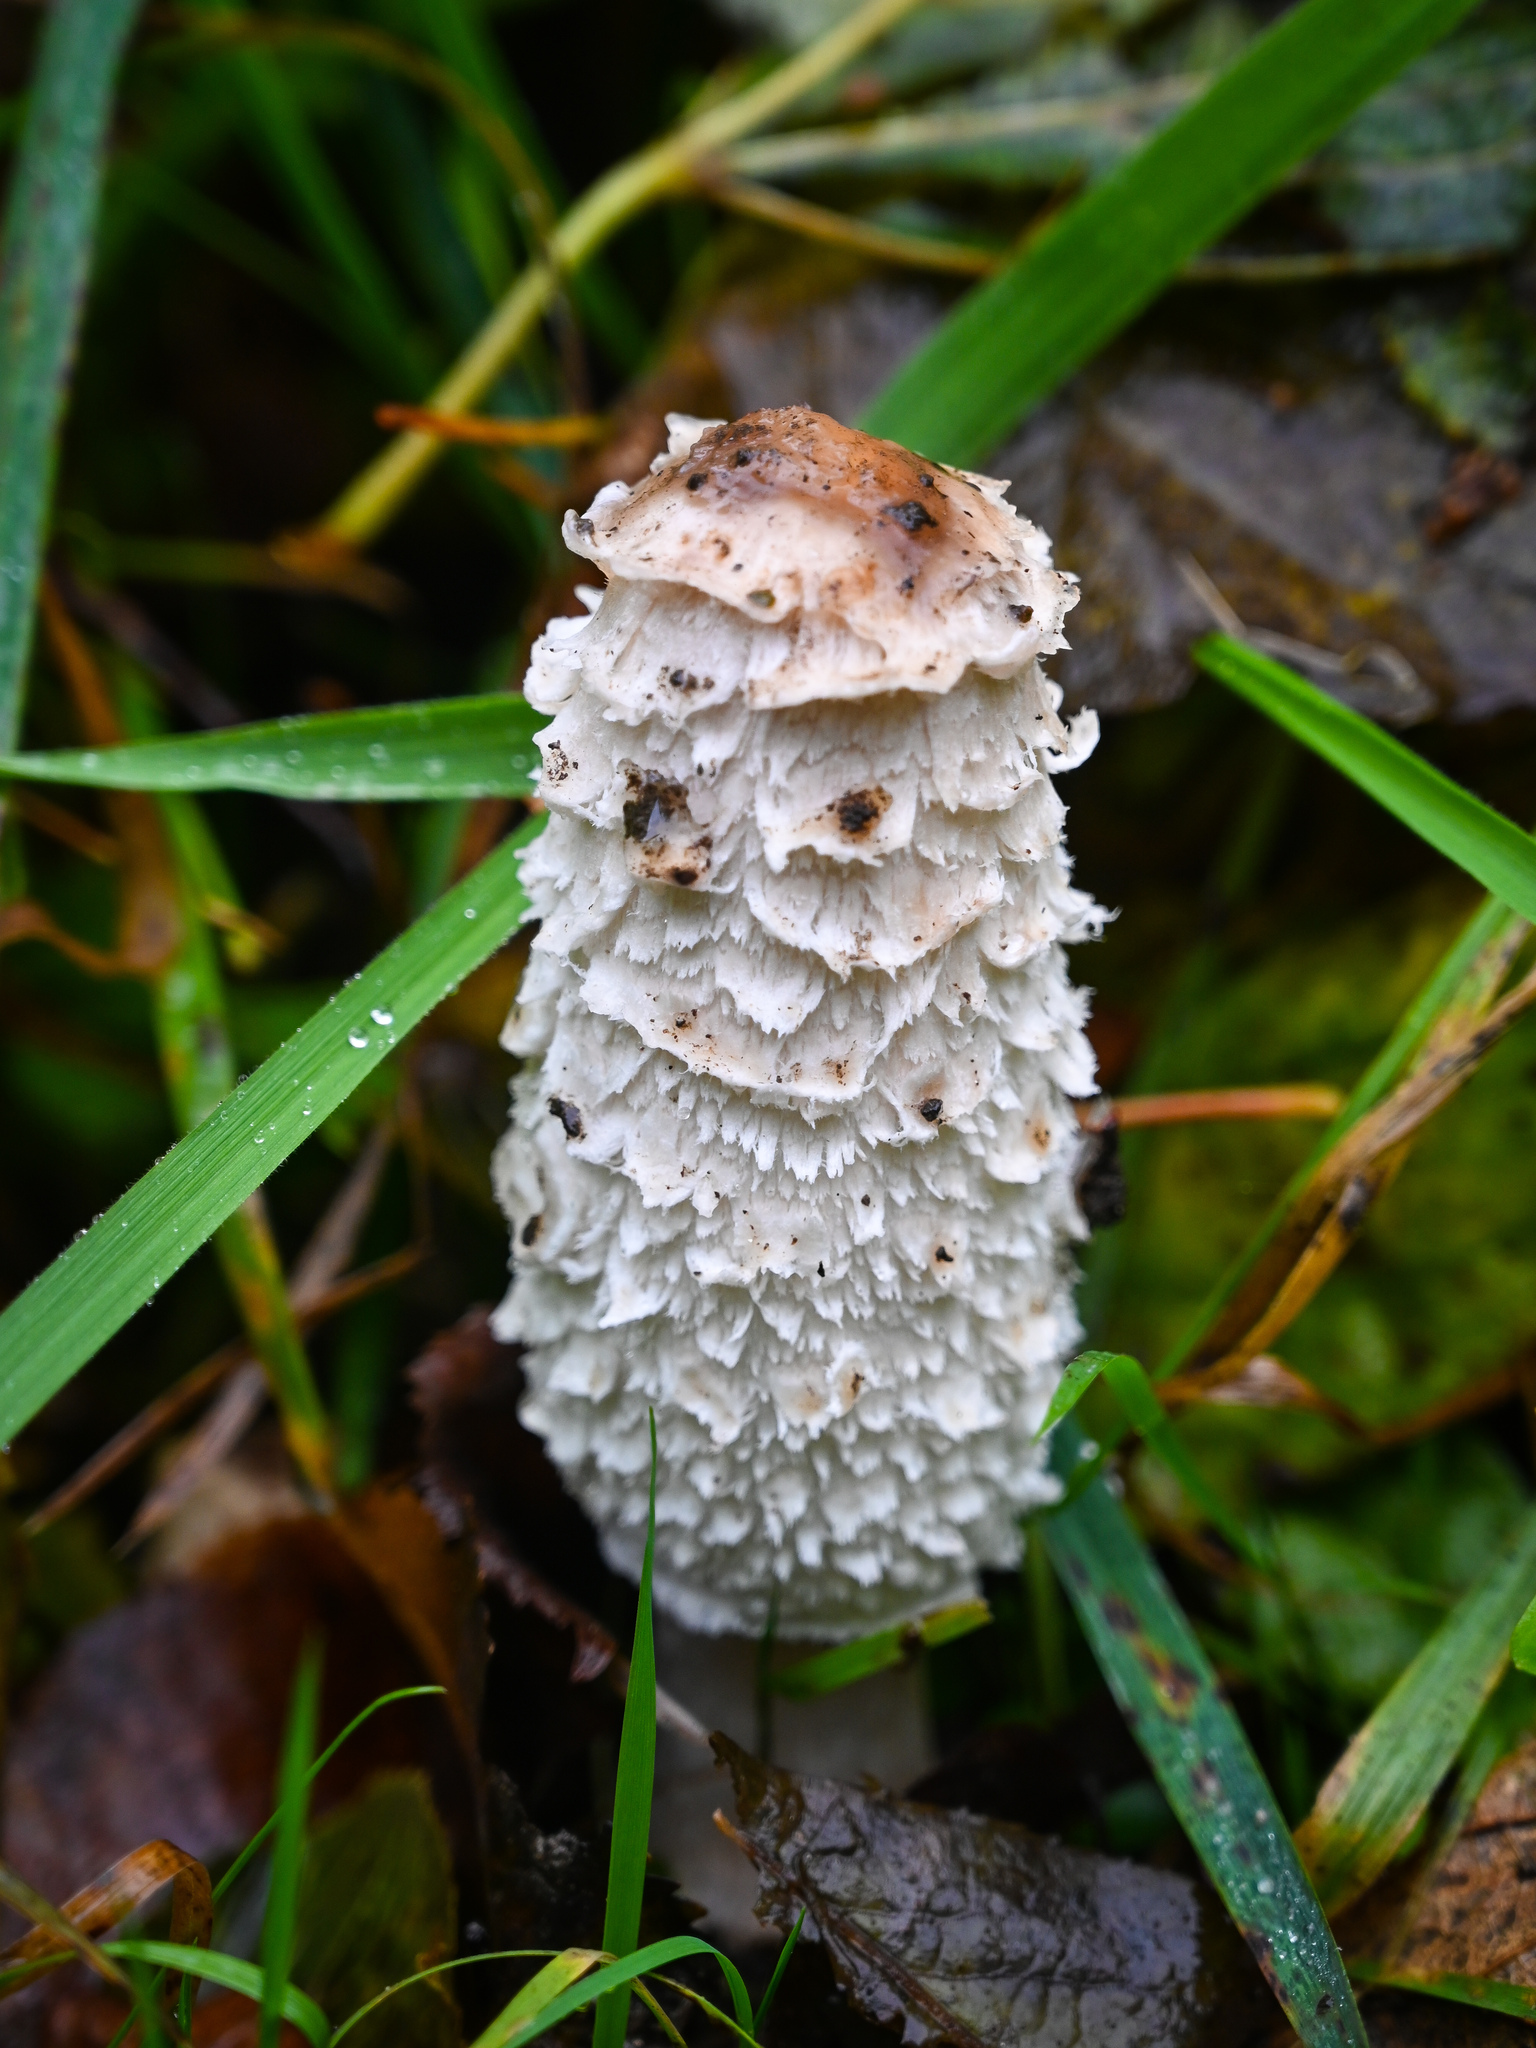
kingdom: Fungi
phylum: Basidiomycota
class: Agaricomycetes
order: Agaricales
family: Agaricaceae
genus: Coprinus
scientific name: Coprinus comatus
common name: Lawyer's wig
